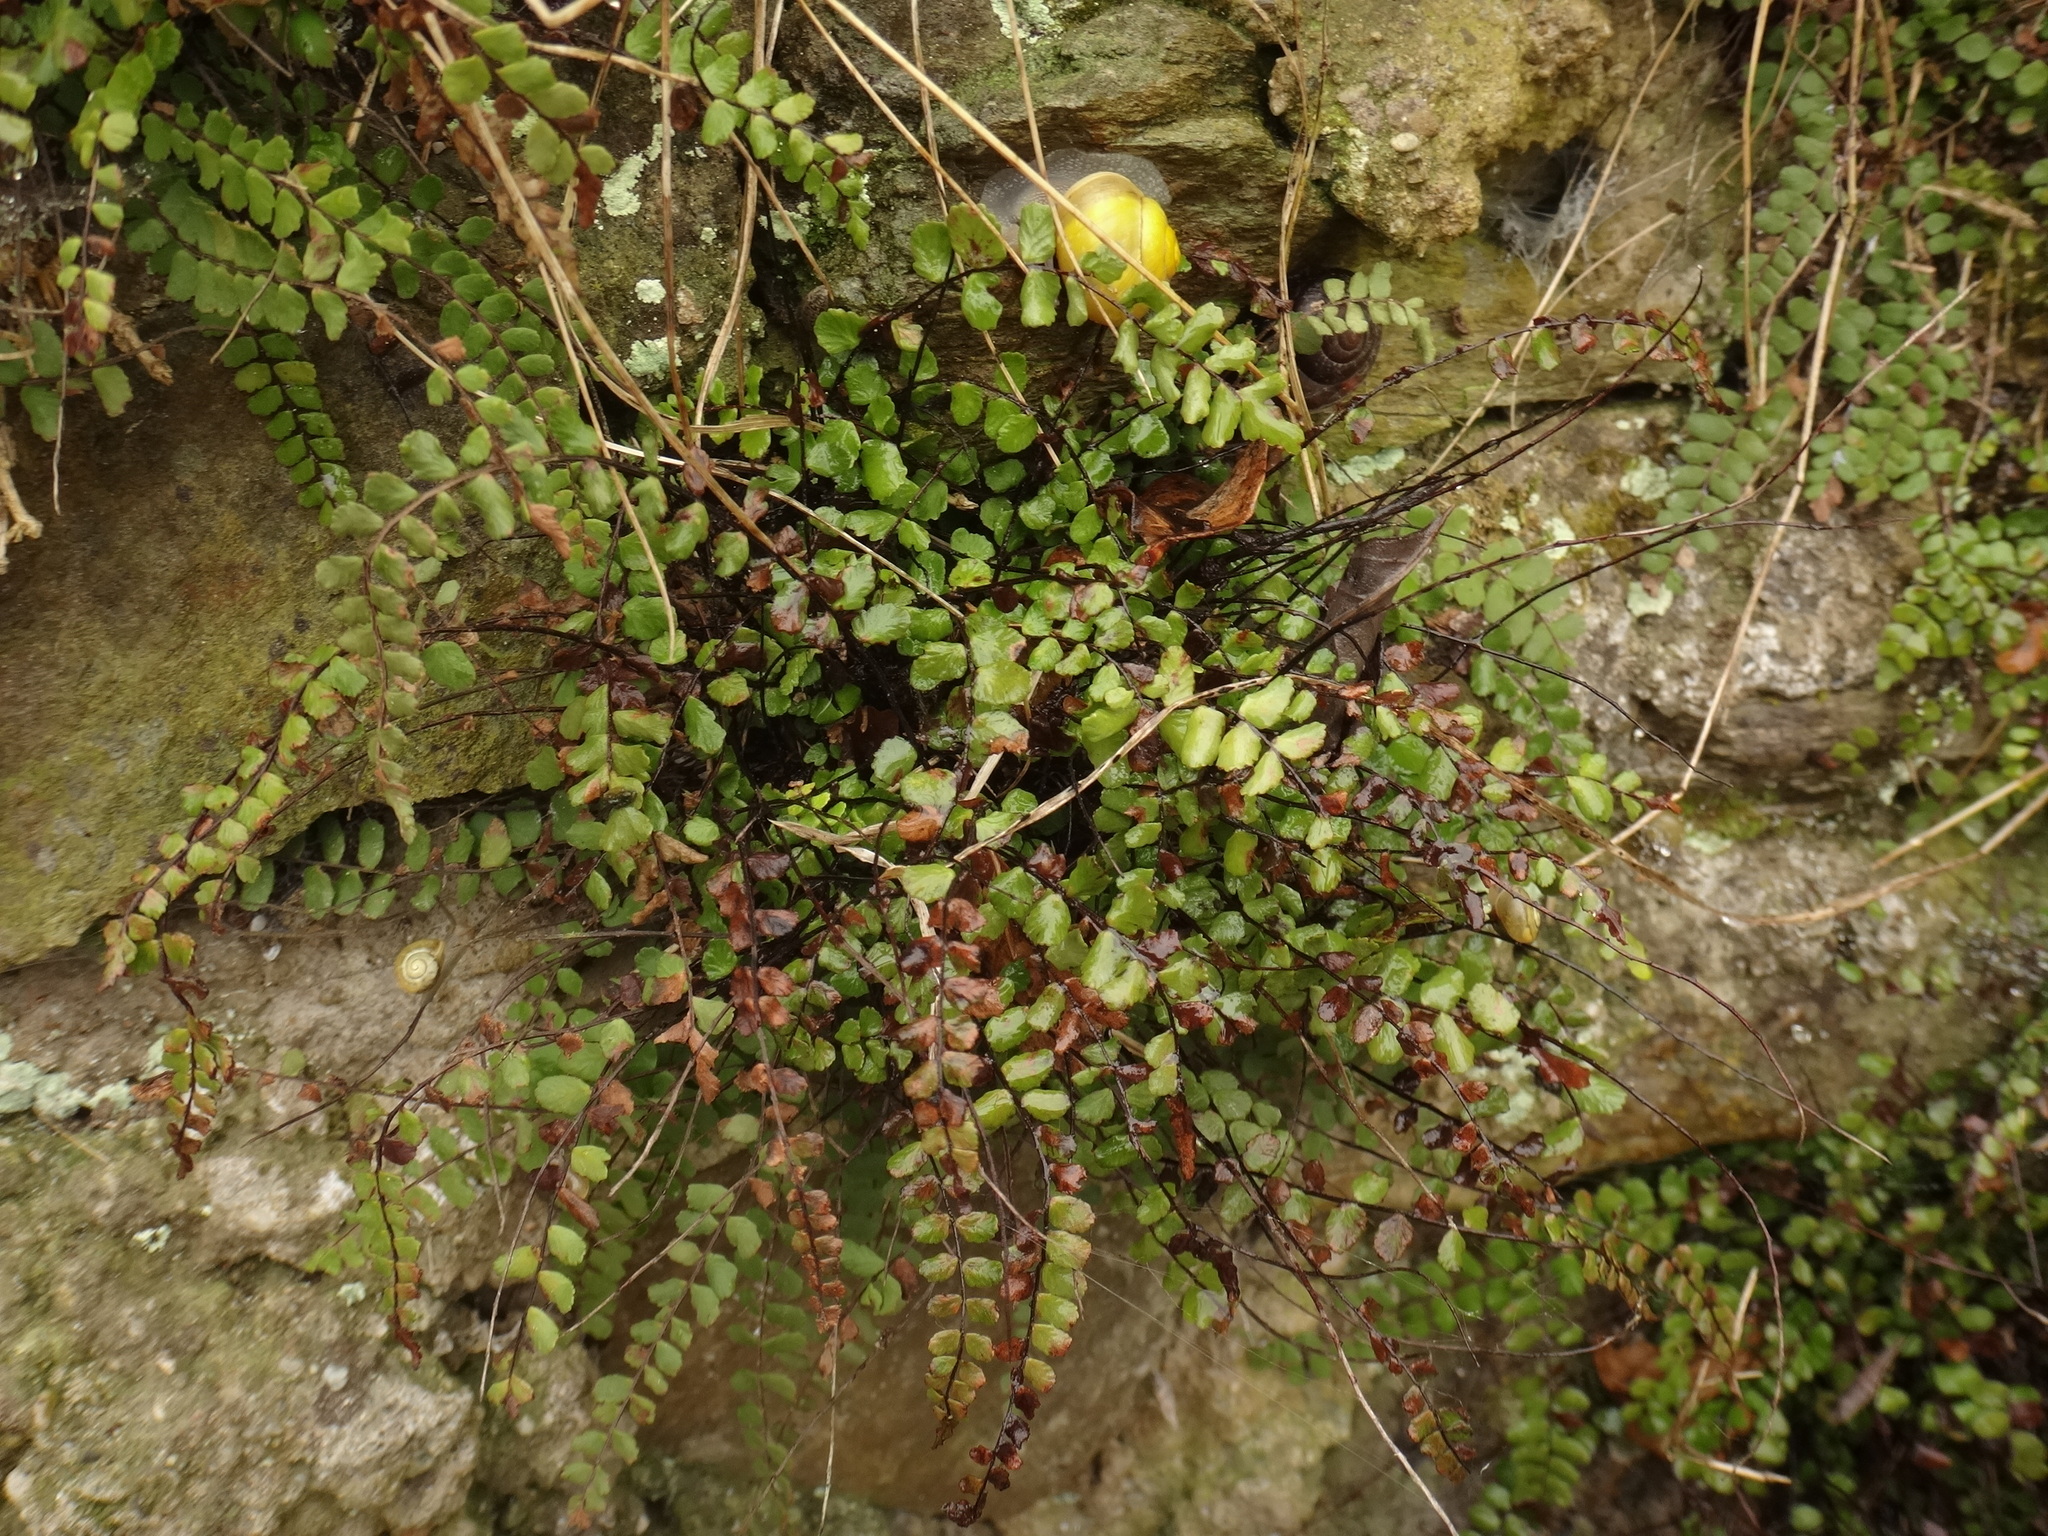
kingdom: Plantae
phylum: Tracheophyta
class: Polypodiopsida
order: Polypodiales
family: Aspleniaceae
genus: Asplenium
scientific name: Asplenium trichomanes
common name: Maidenhair spleenwort
